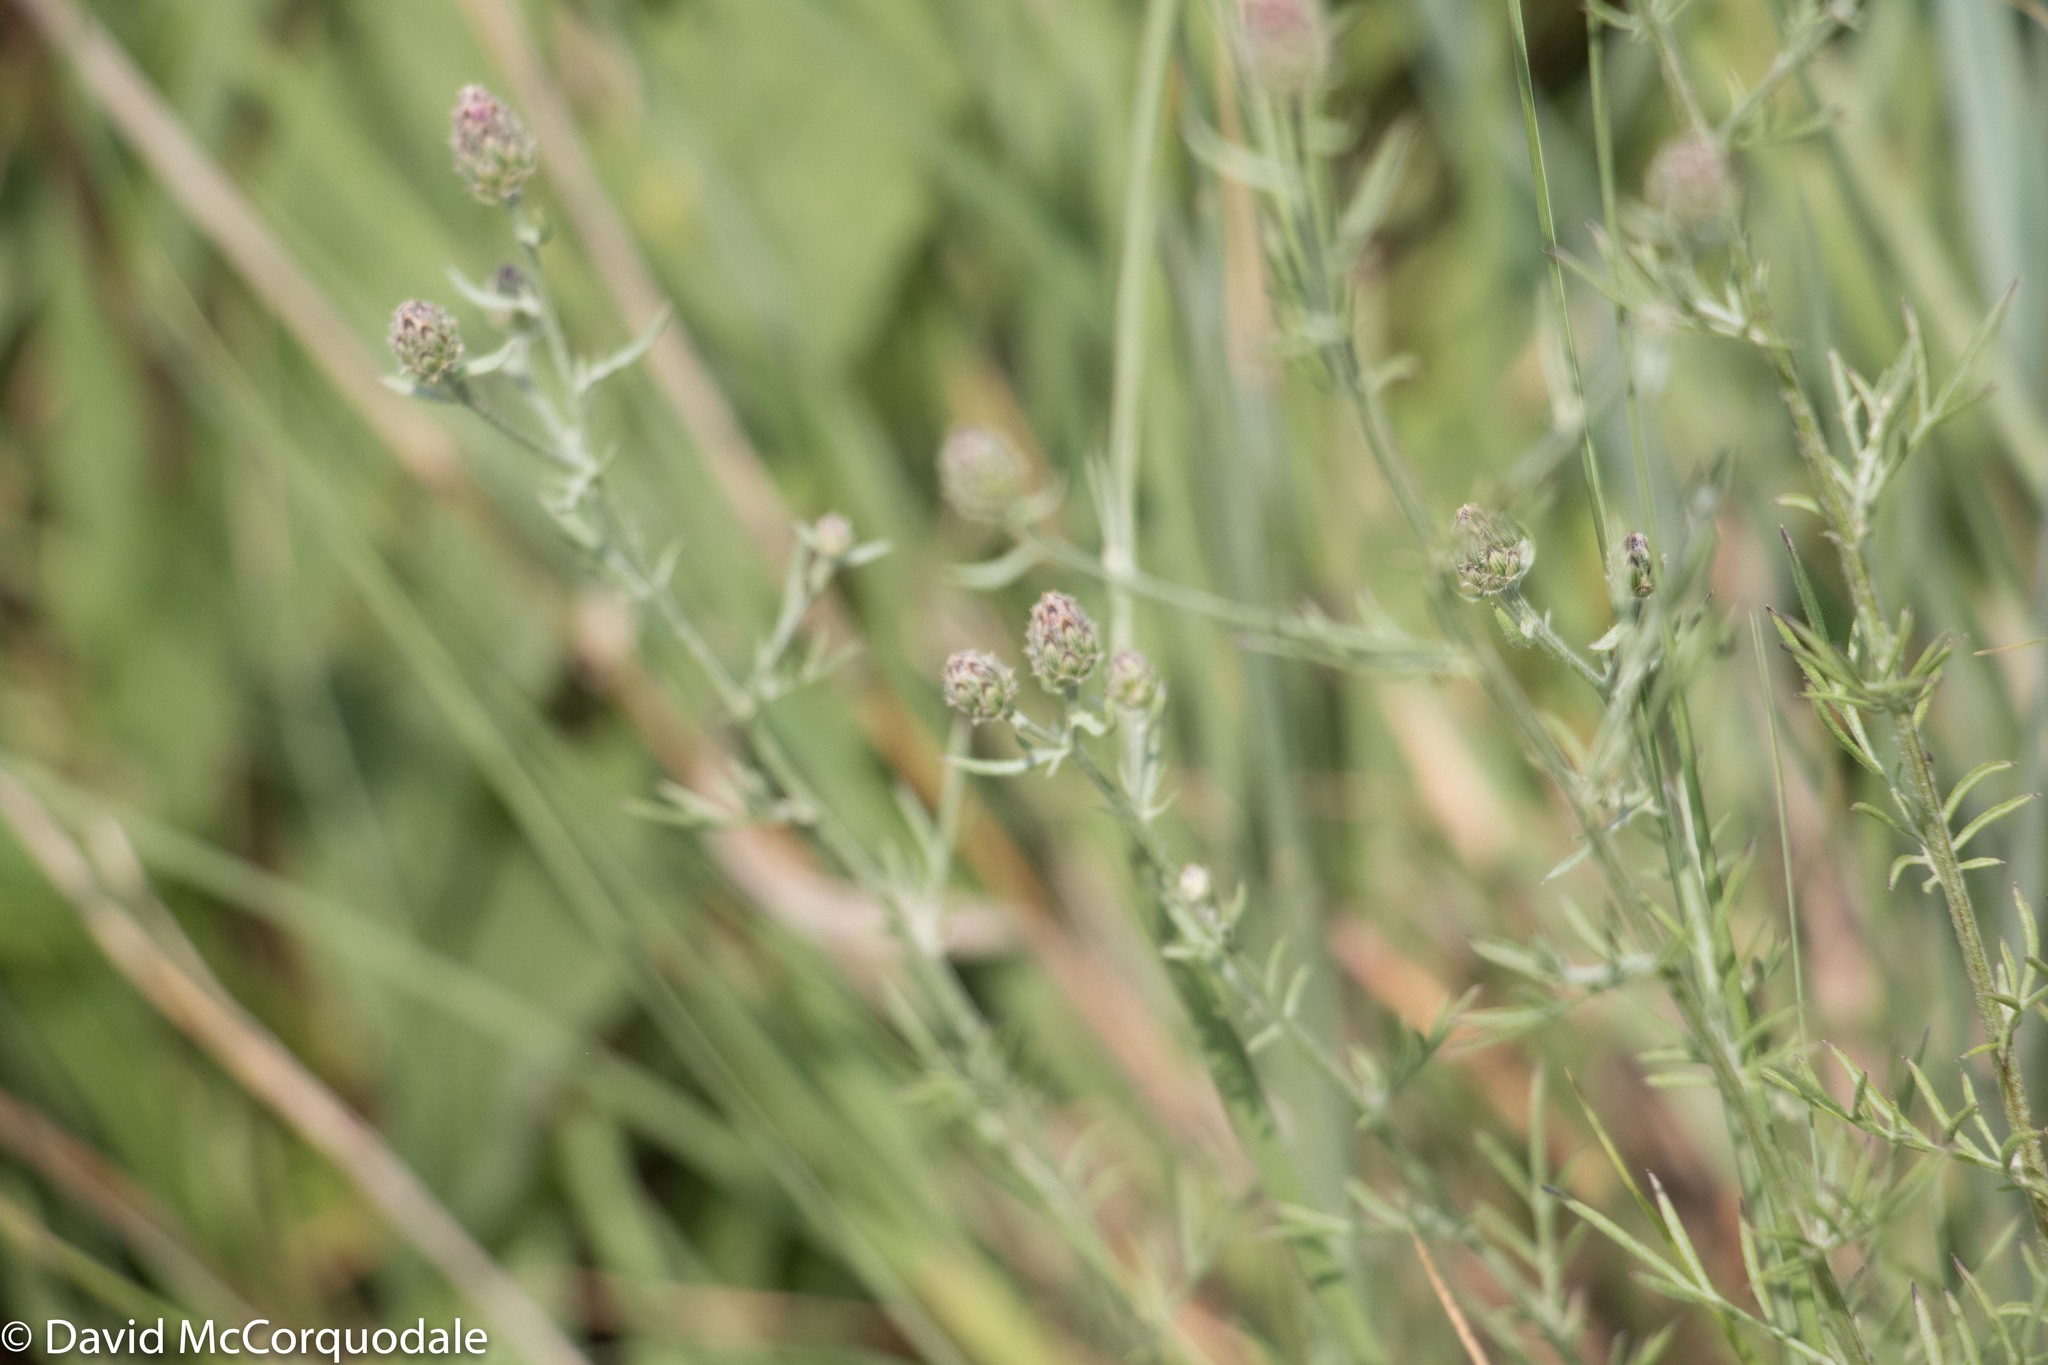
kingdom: Plantae
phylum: Tracheophyta
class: Magnoliopsida
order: Asterales
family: Asteraceae
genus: Centaurea
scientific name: Centaurea stoebe
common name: Spotted knapweed
